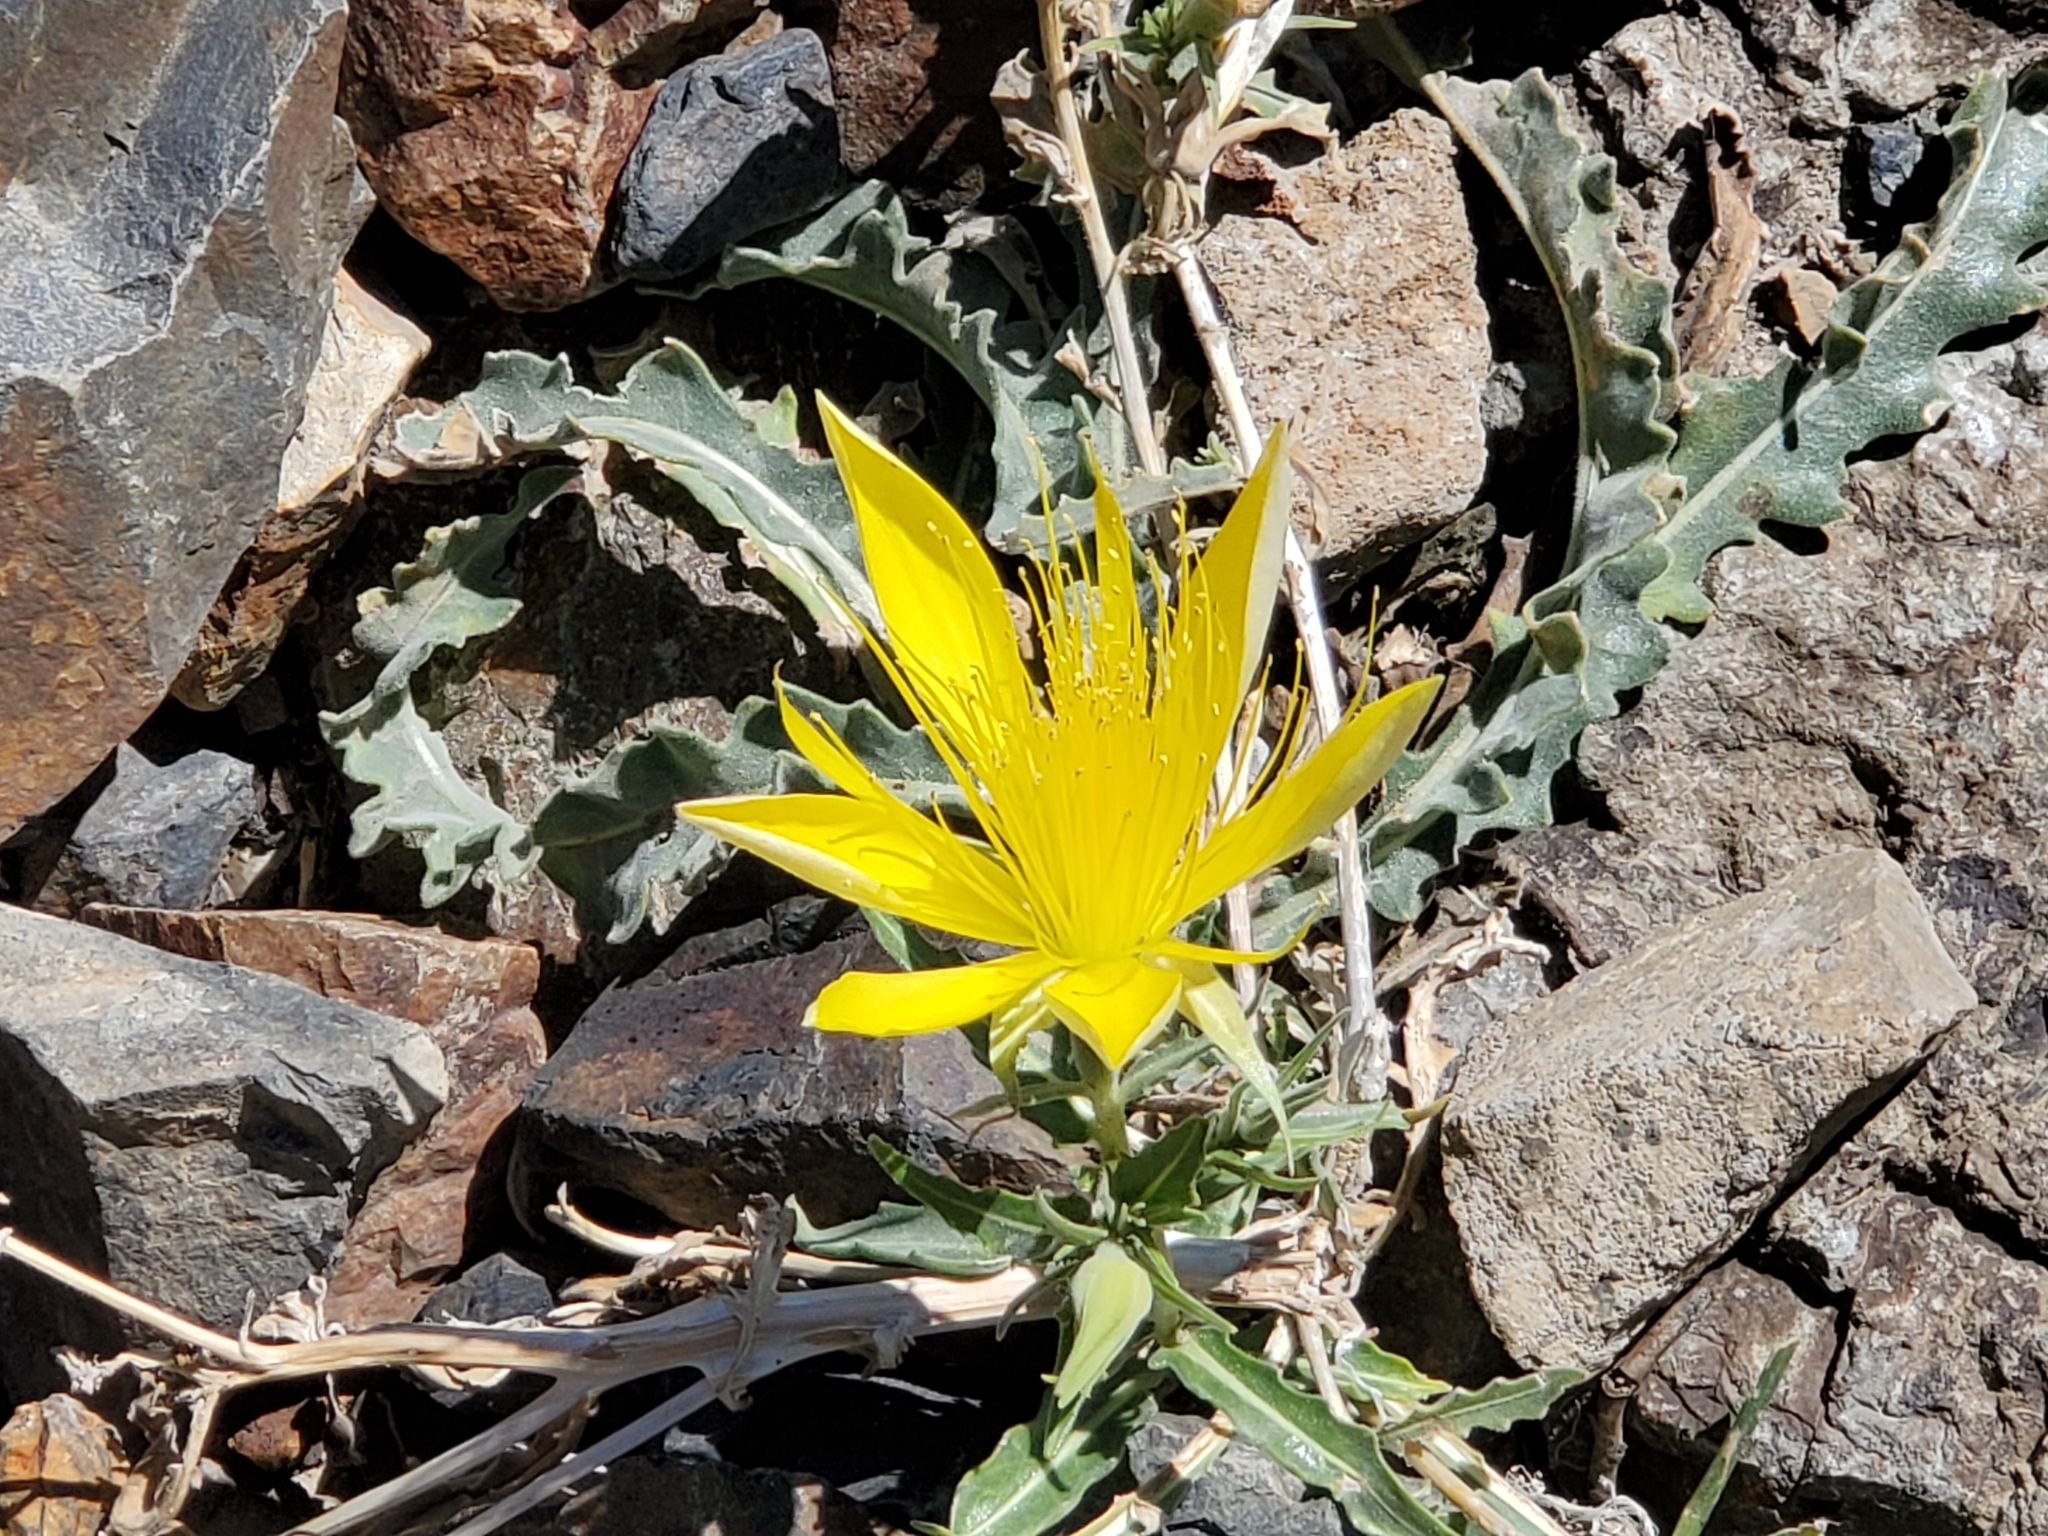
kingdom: Plantae
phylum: Tracheophyta
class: Magnoliopsida
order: Cornales
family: Loasaceae
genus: Mentzelia
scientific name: Mentzelia laevicaulis
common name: Smooth-stem blazingstar
